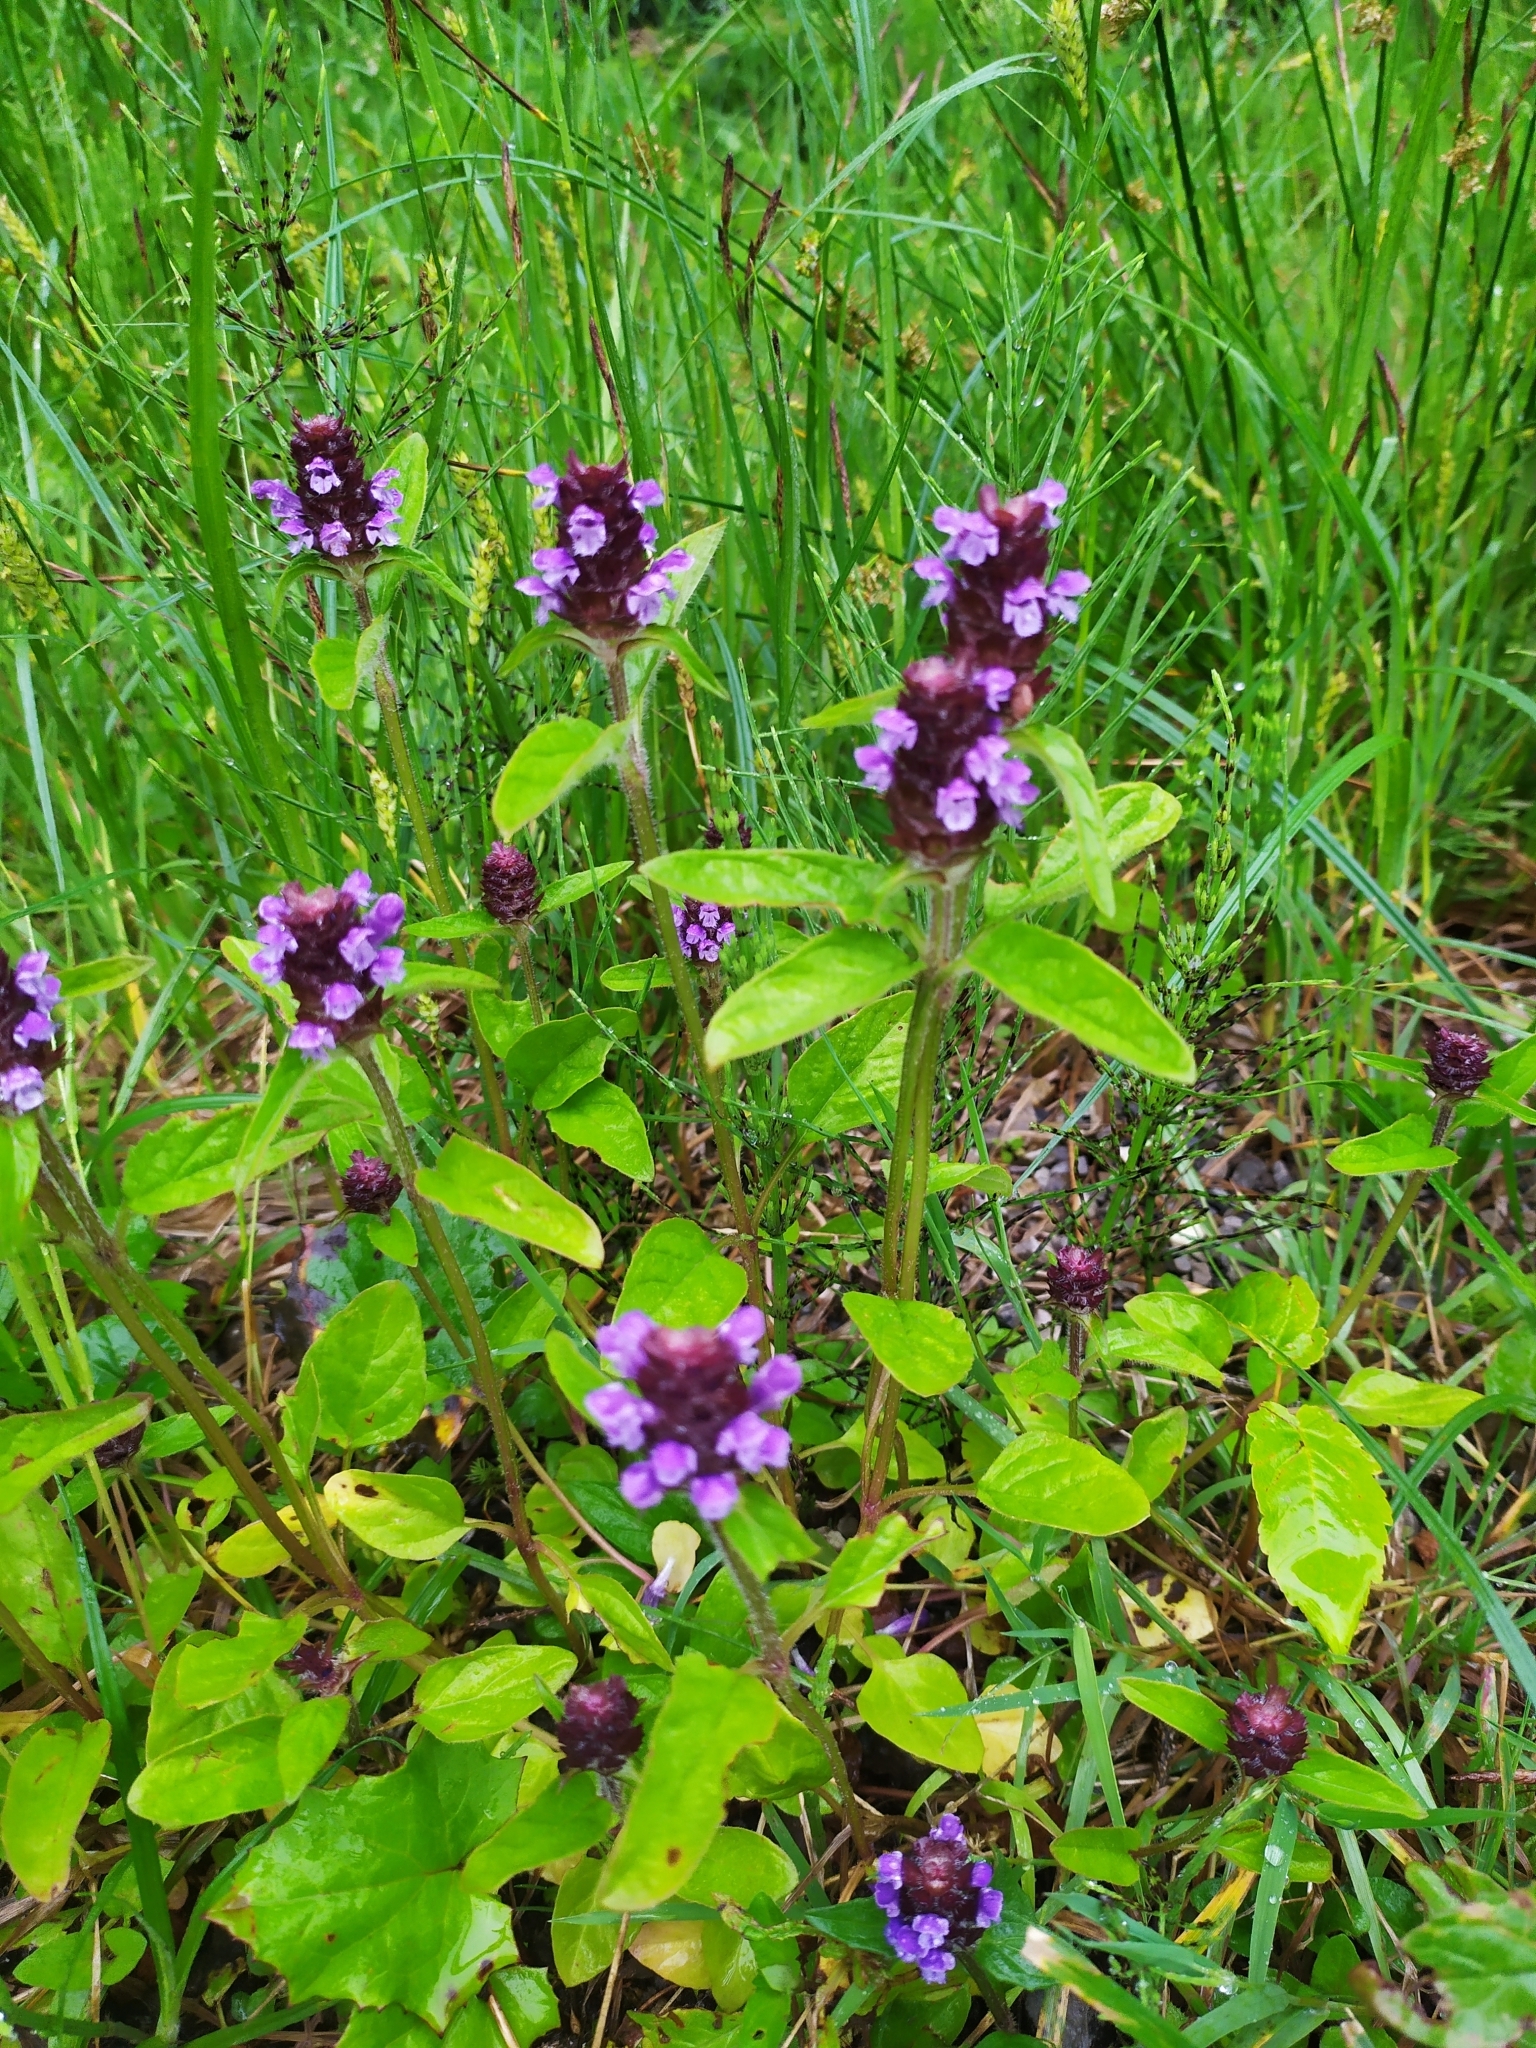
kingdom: Plantae
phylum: Tracheophyta
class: Magnoliopsida
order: Lamiales
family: Lamiaceae
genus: Prunella
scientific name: Prunella vulgaris
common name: Heal-all
